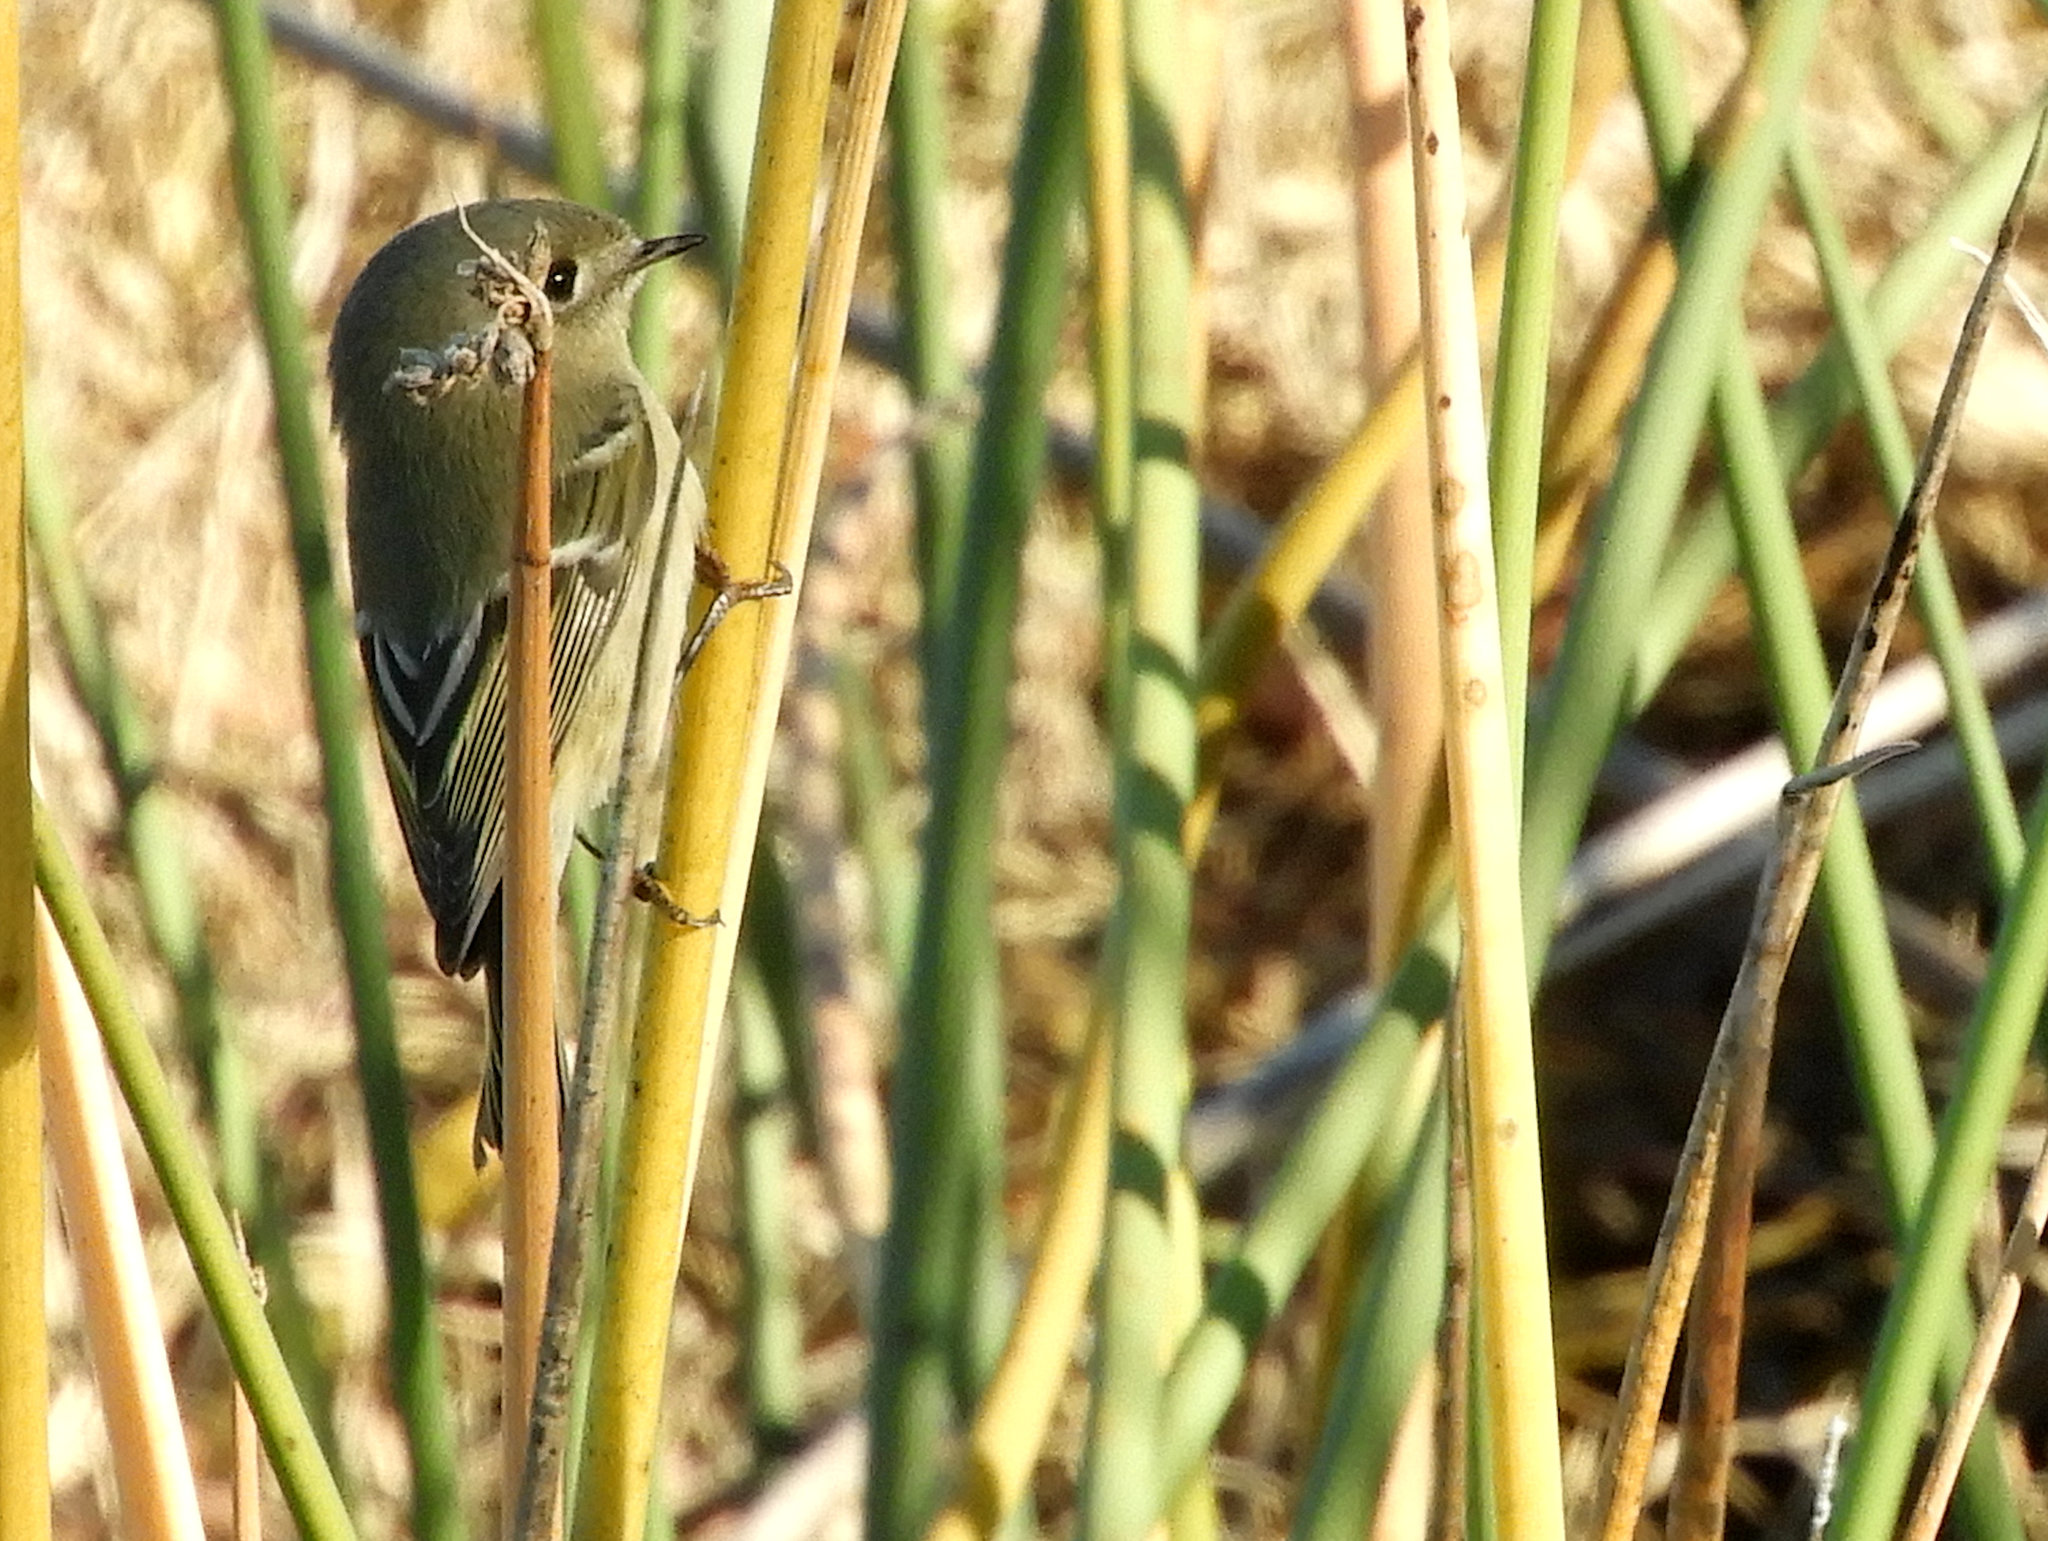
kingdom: Animalia
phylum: Chordata
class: Aves
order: Passeriformes
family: Regulidae
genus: Regulus
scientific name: Regulus calendula
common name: Ruby-crowned kinglet
